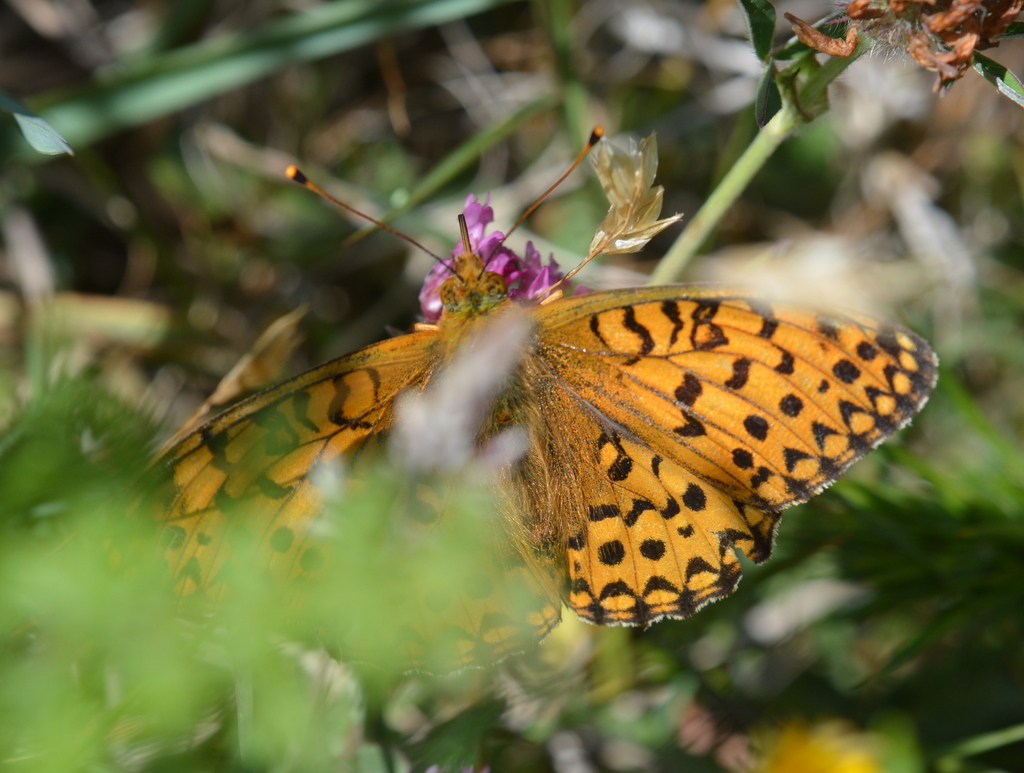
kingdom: Animalia
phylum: Arthropoda
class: Insecta
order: Lepidoptera
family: Nymphalidae
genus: Speyeria
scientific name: Speyeria aglaja
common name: Dark green fritillary
